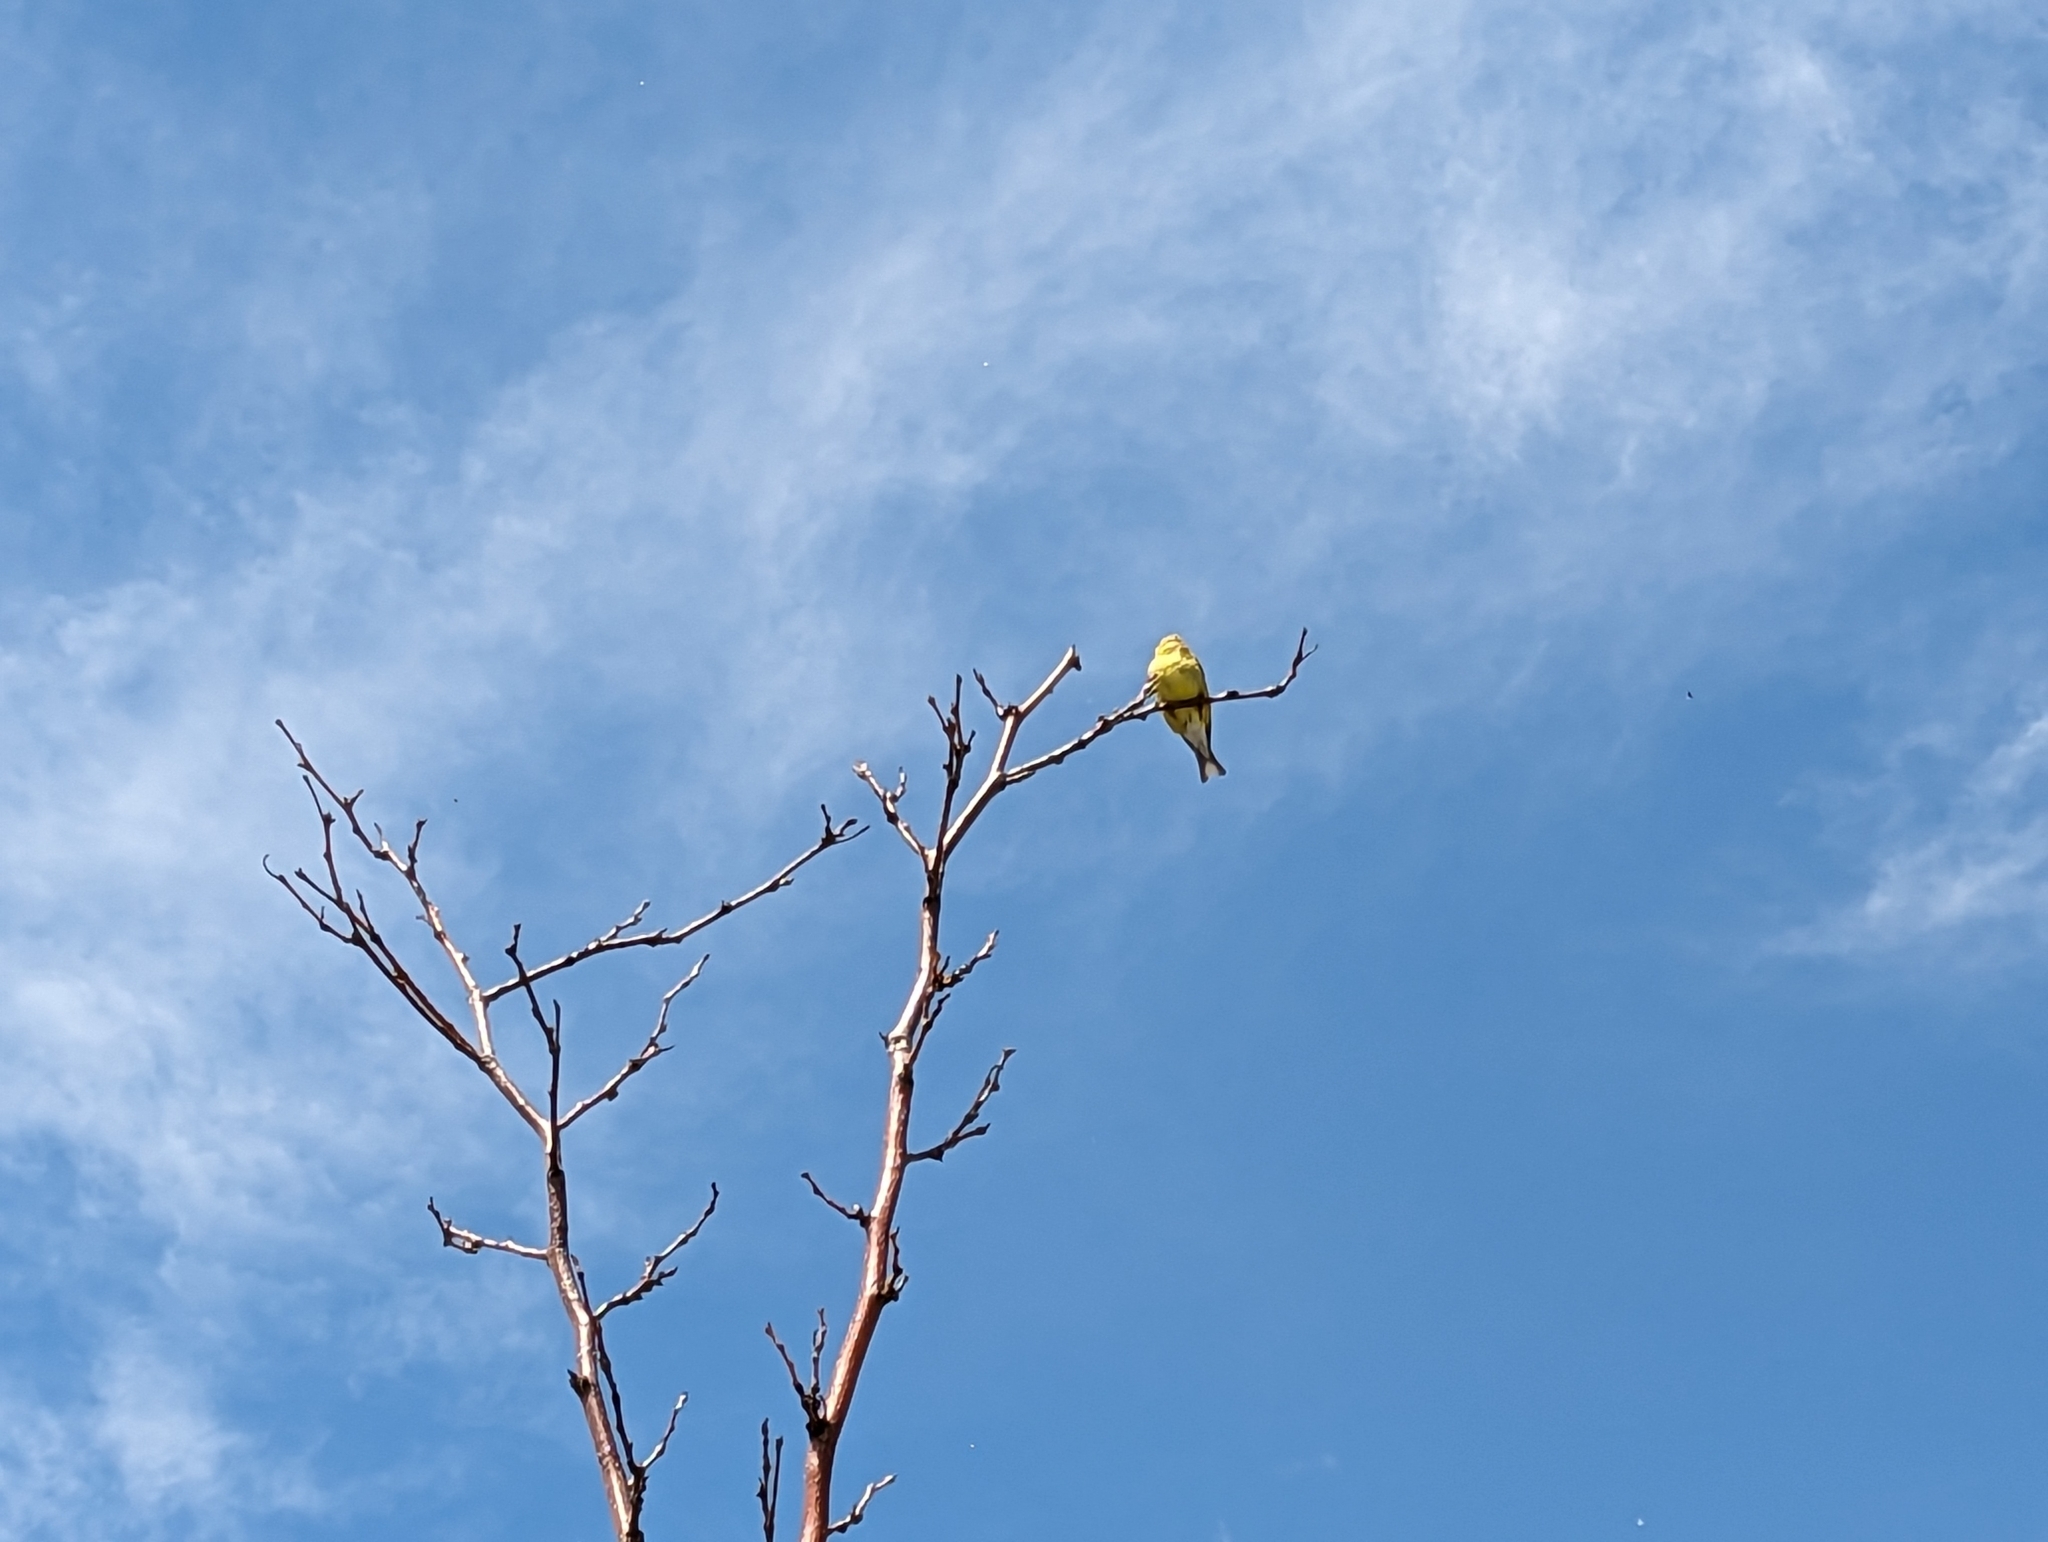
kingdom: Animalia
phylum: Chordata
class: Aves
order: Passeriformes
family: Fringillidae
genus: Spinus
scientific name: Spinus tristis
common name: American goldfinch
